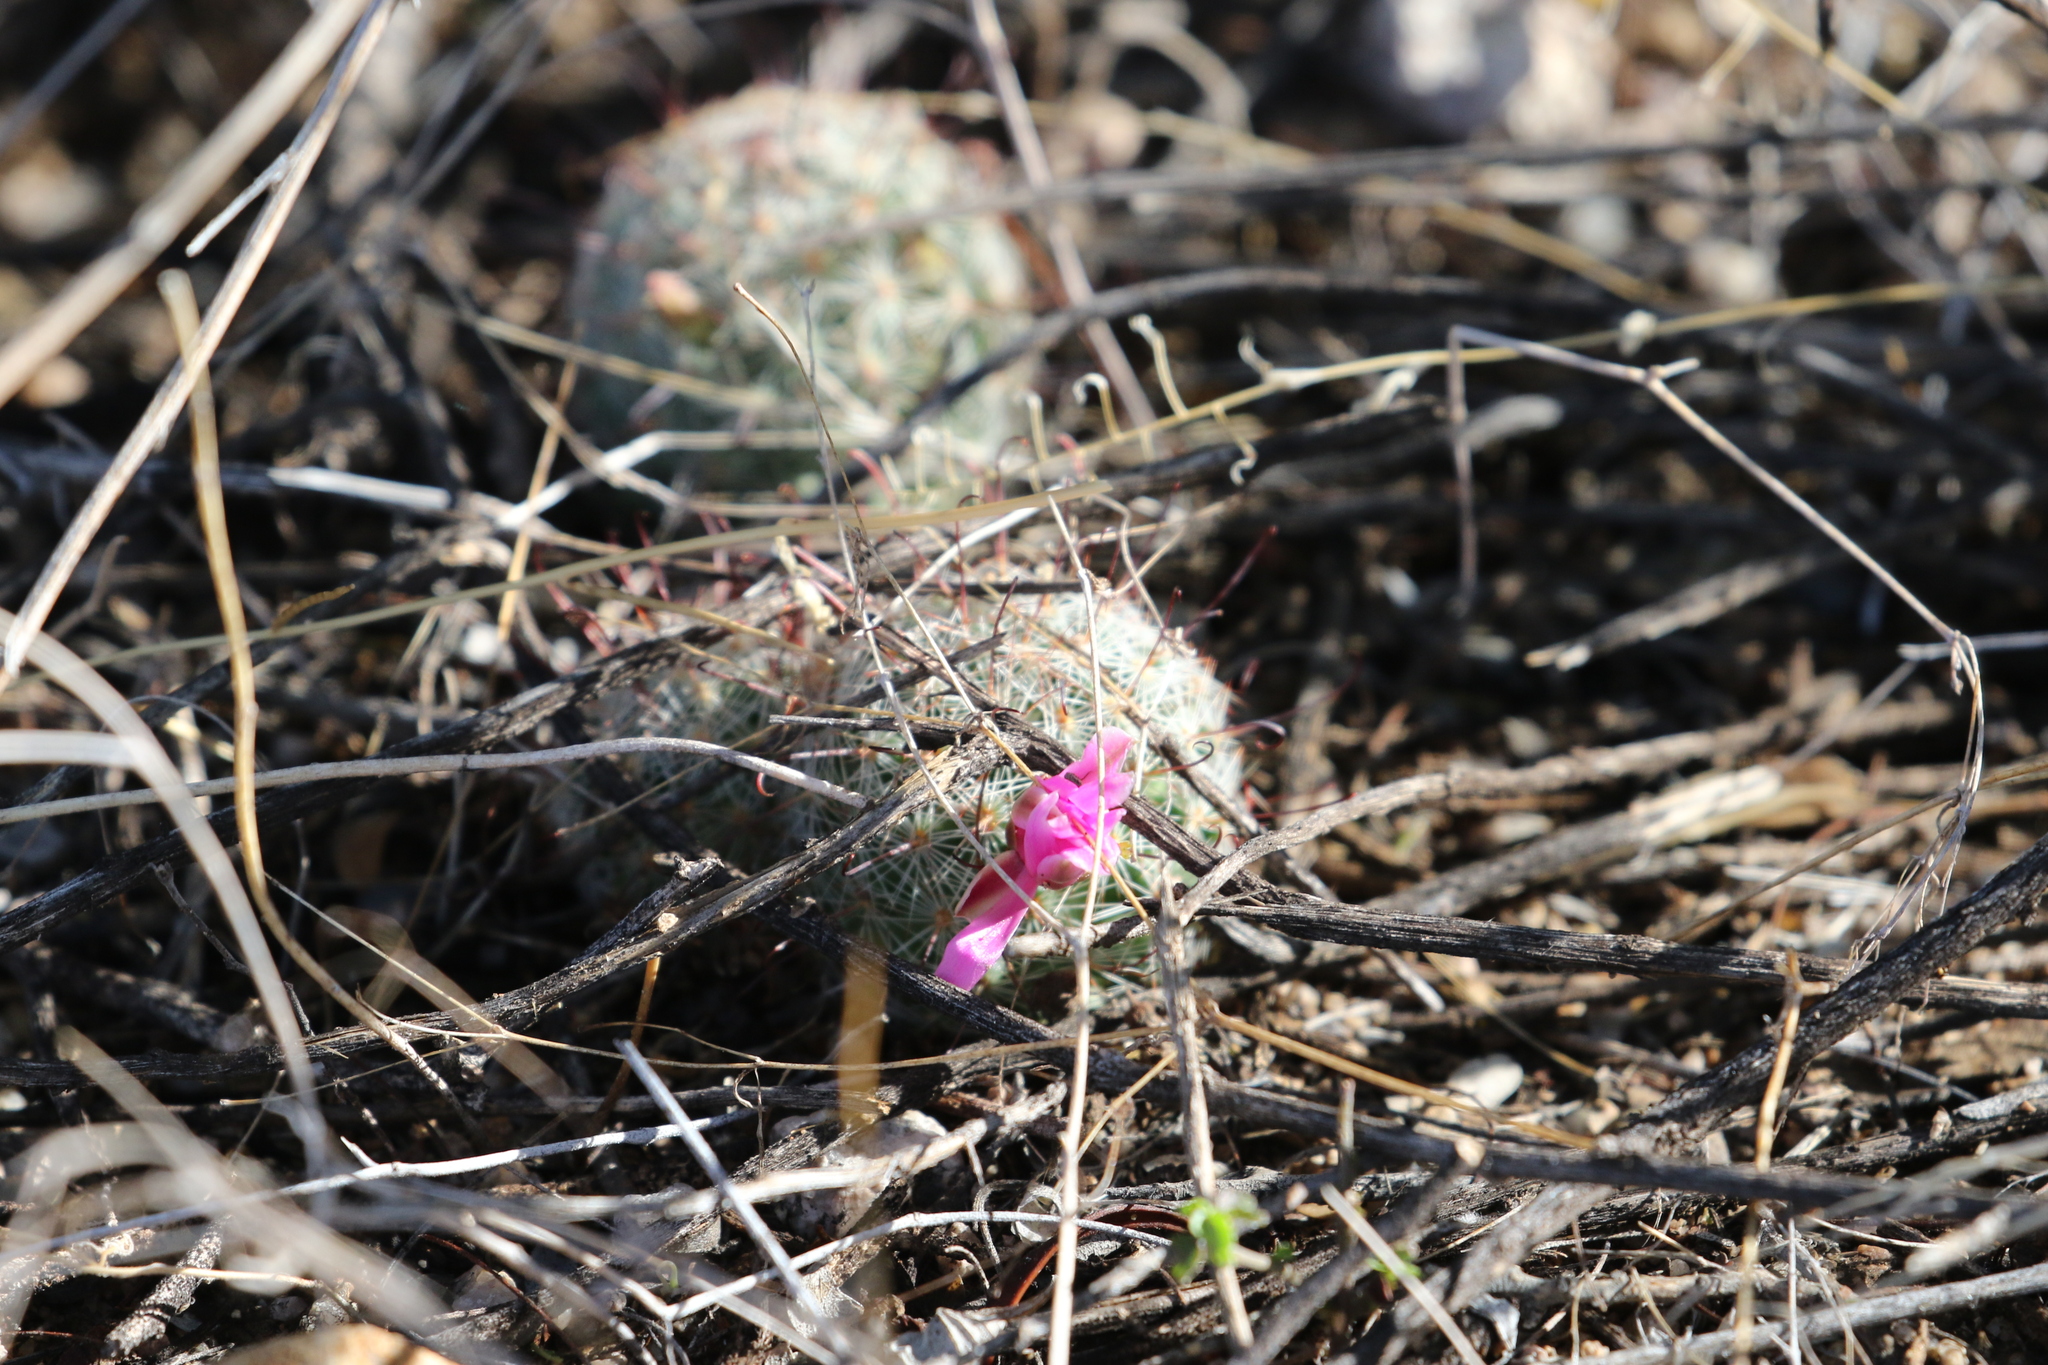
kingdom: Plantae
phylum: Tracheophyta
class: Magnoliopsida
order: Caryophyllales
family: Cactaceae
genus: Cochemiea
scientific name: Cochemiea grahamii
